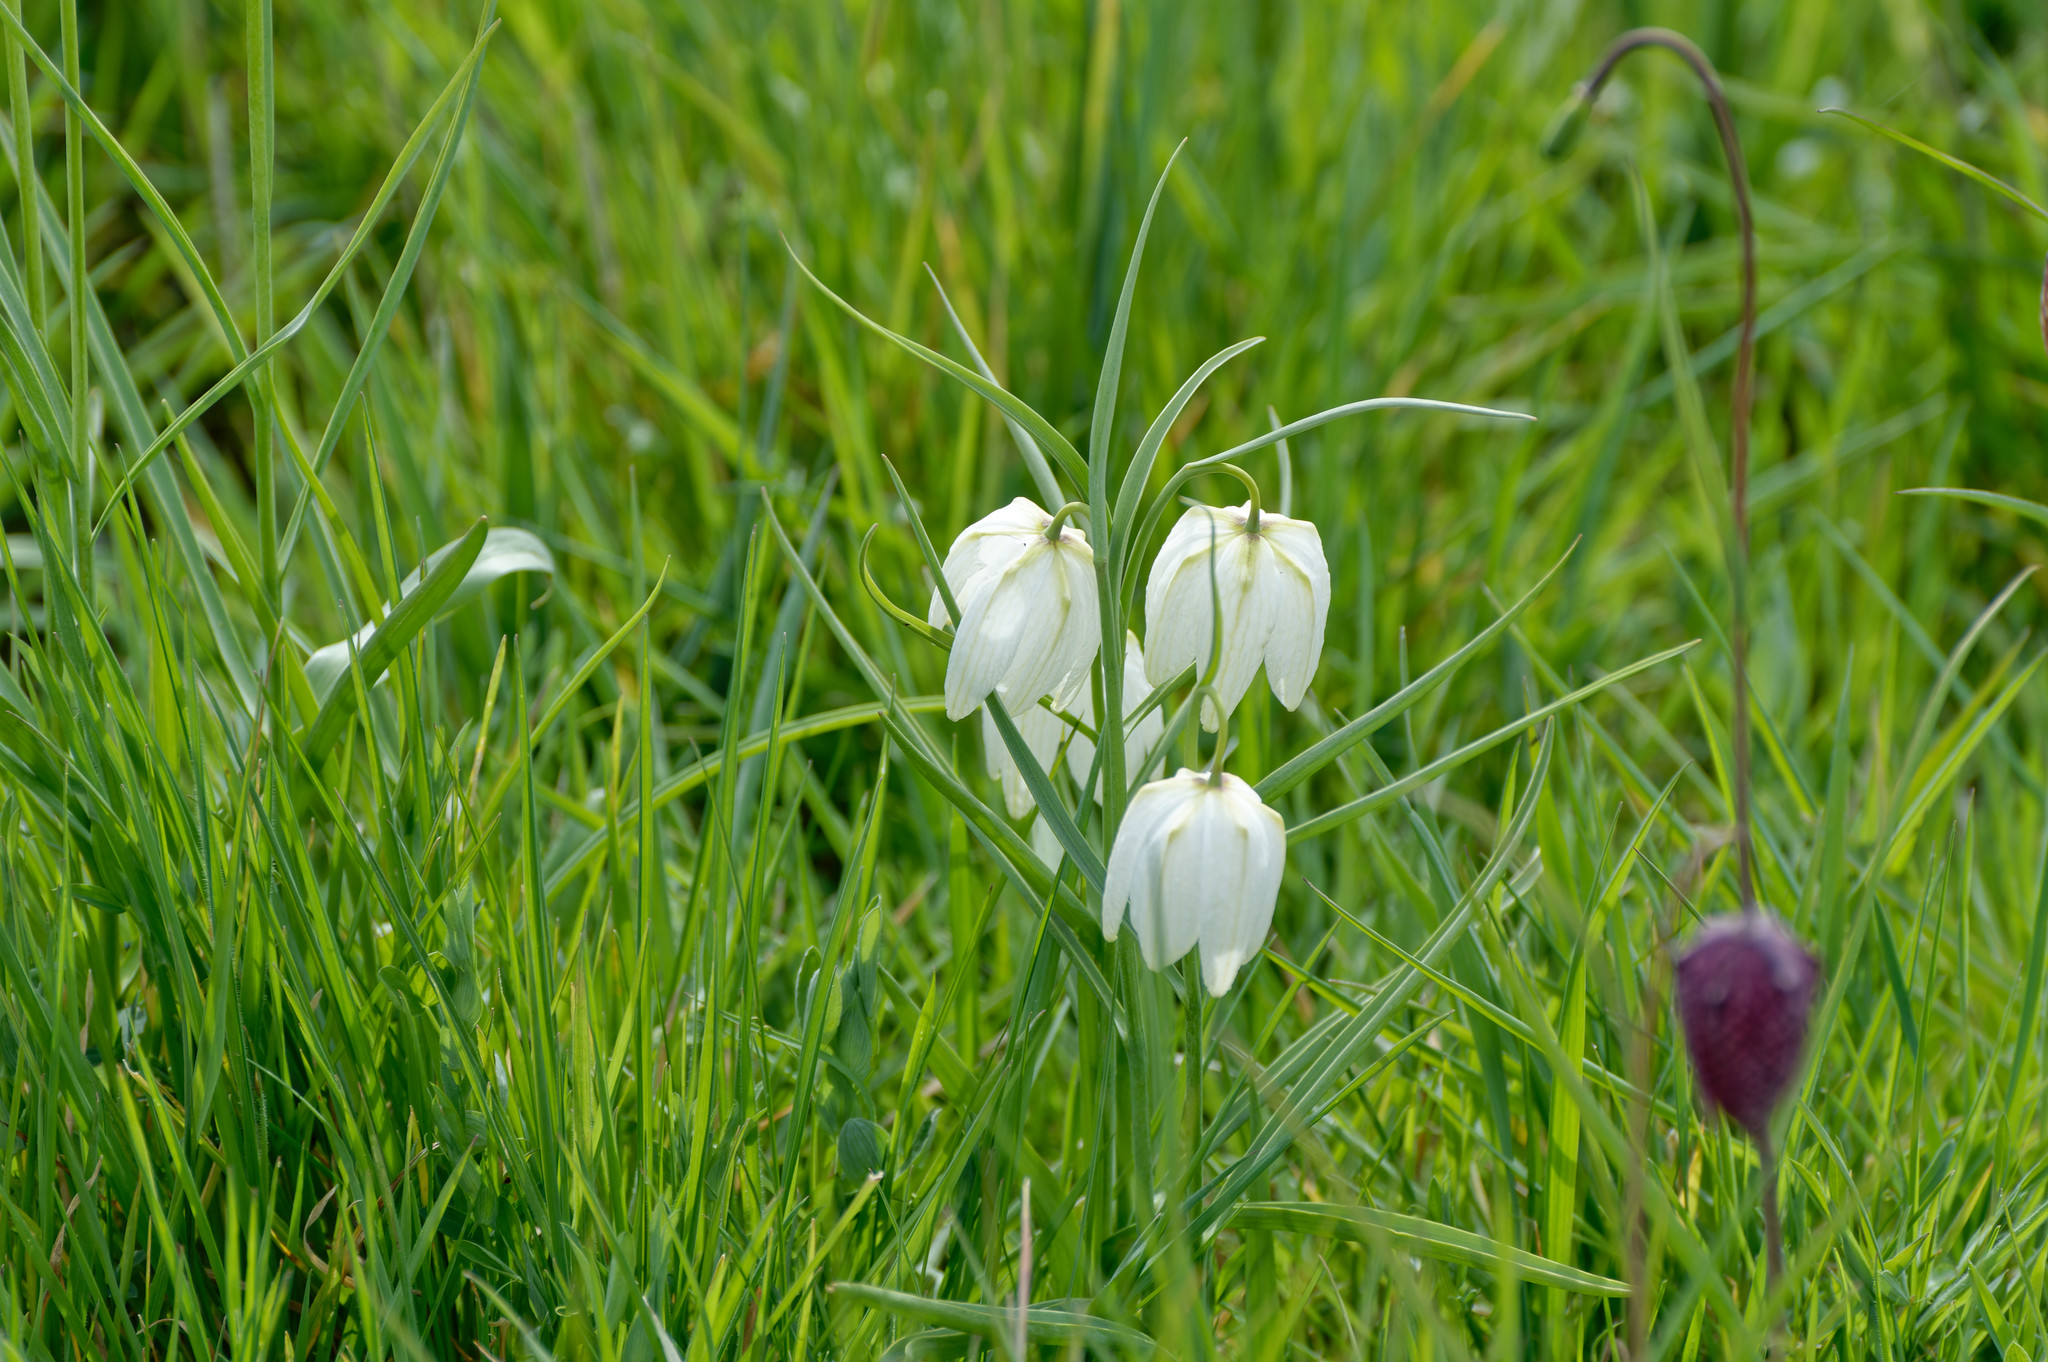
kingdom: Plantae
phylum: Tracheophyta
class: Liliopsida
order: Liliales
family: Liliaceae
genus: Fritillaria
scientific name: Fritillaria meleagris
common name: Fritillary
